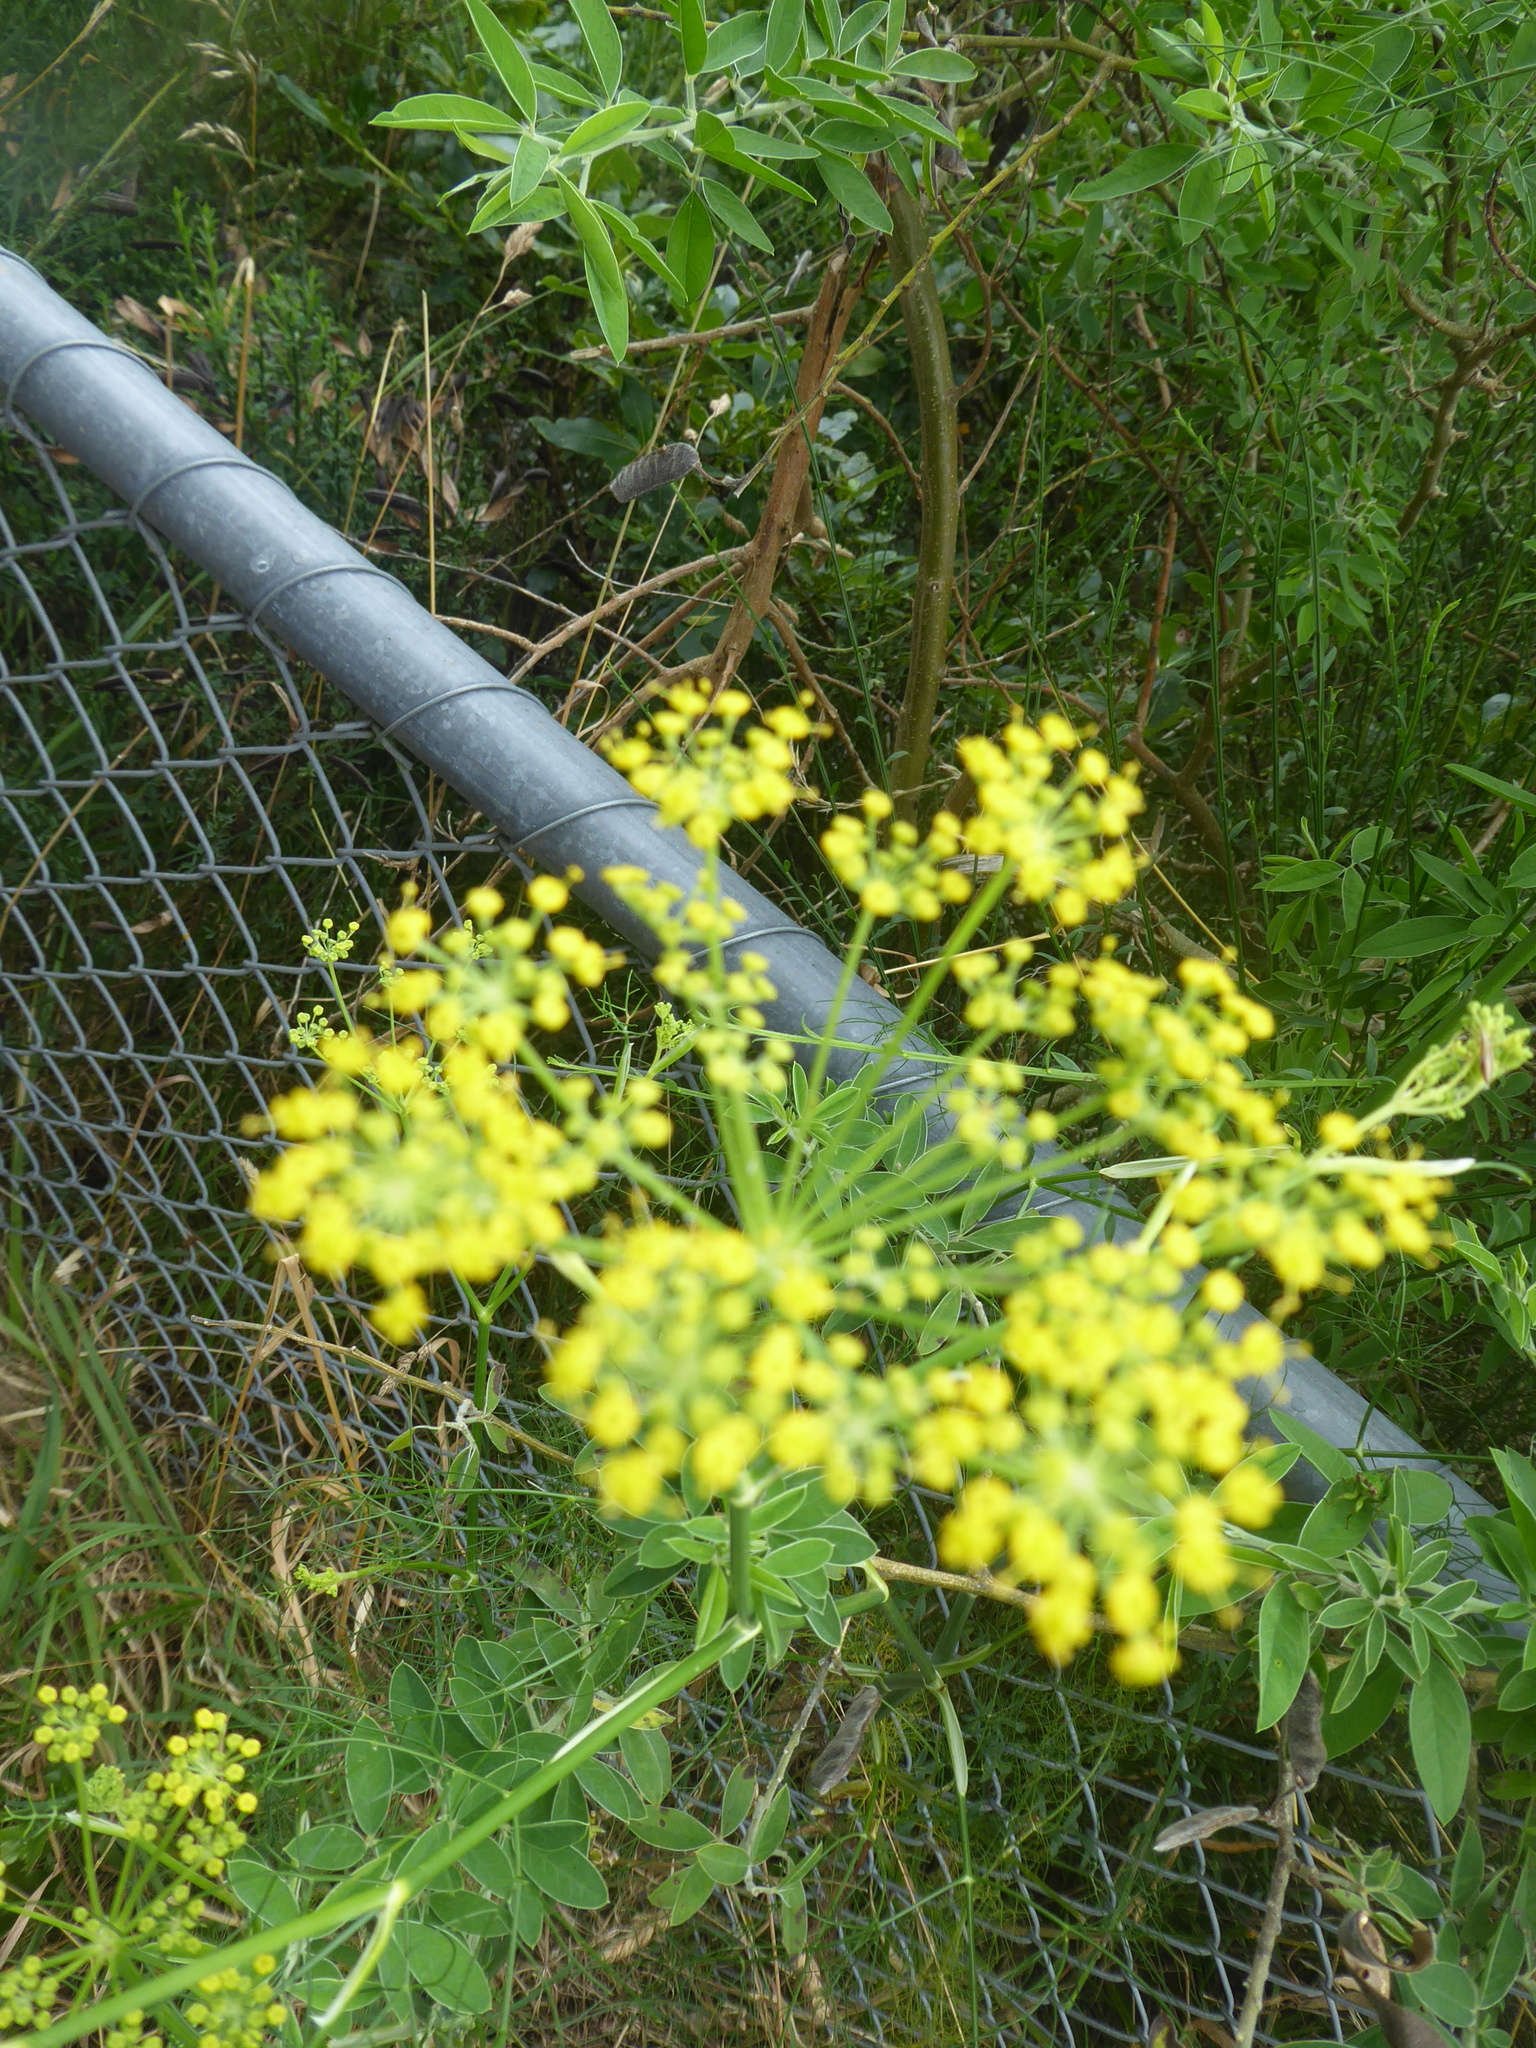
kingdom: Plantae
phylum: Tracheophyta
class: Magnoliopsida
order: Apiales
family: Apiaceae
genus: Foeniculum
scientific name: Foeniculum vulgare
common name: Fennel
